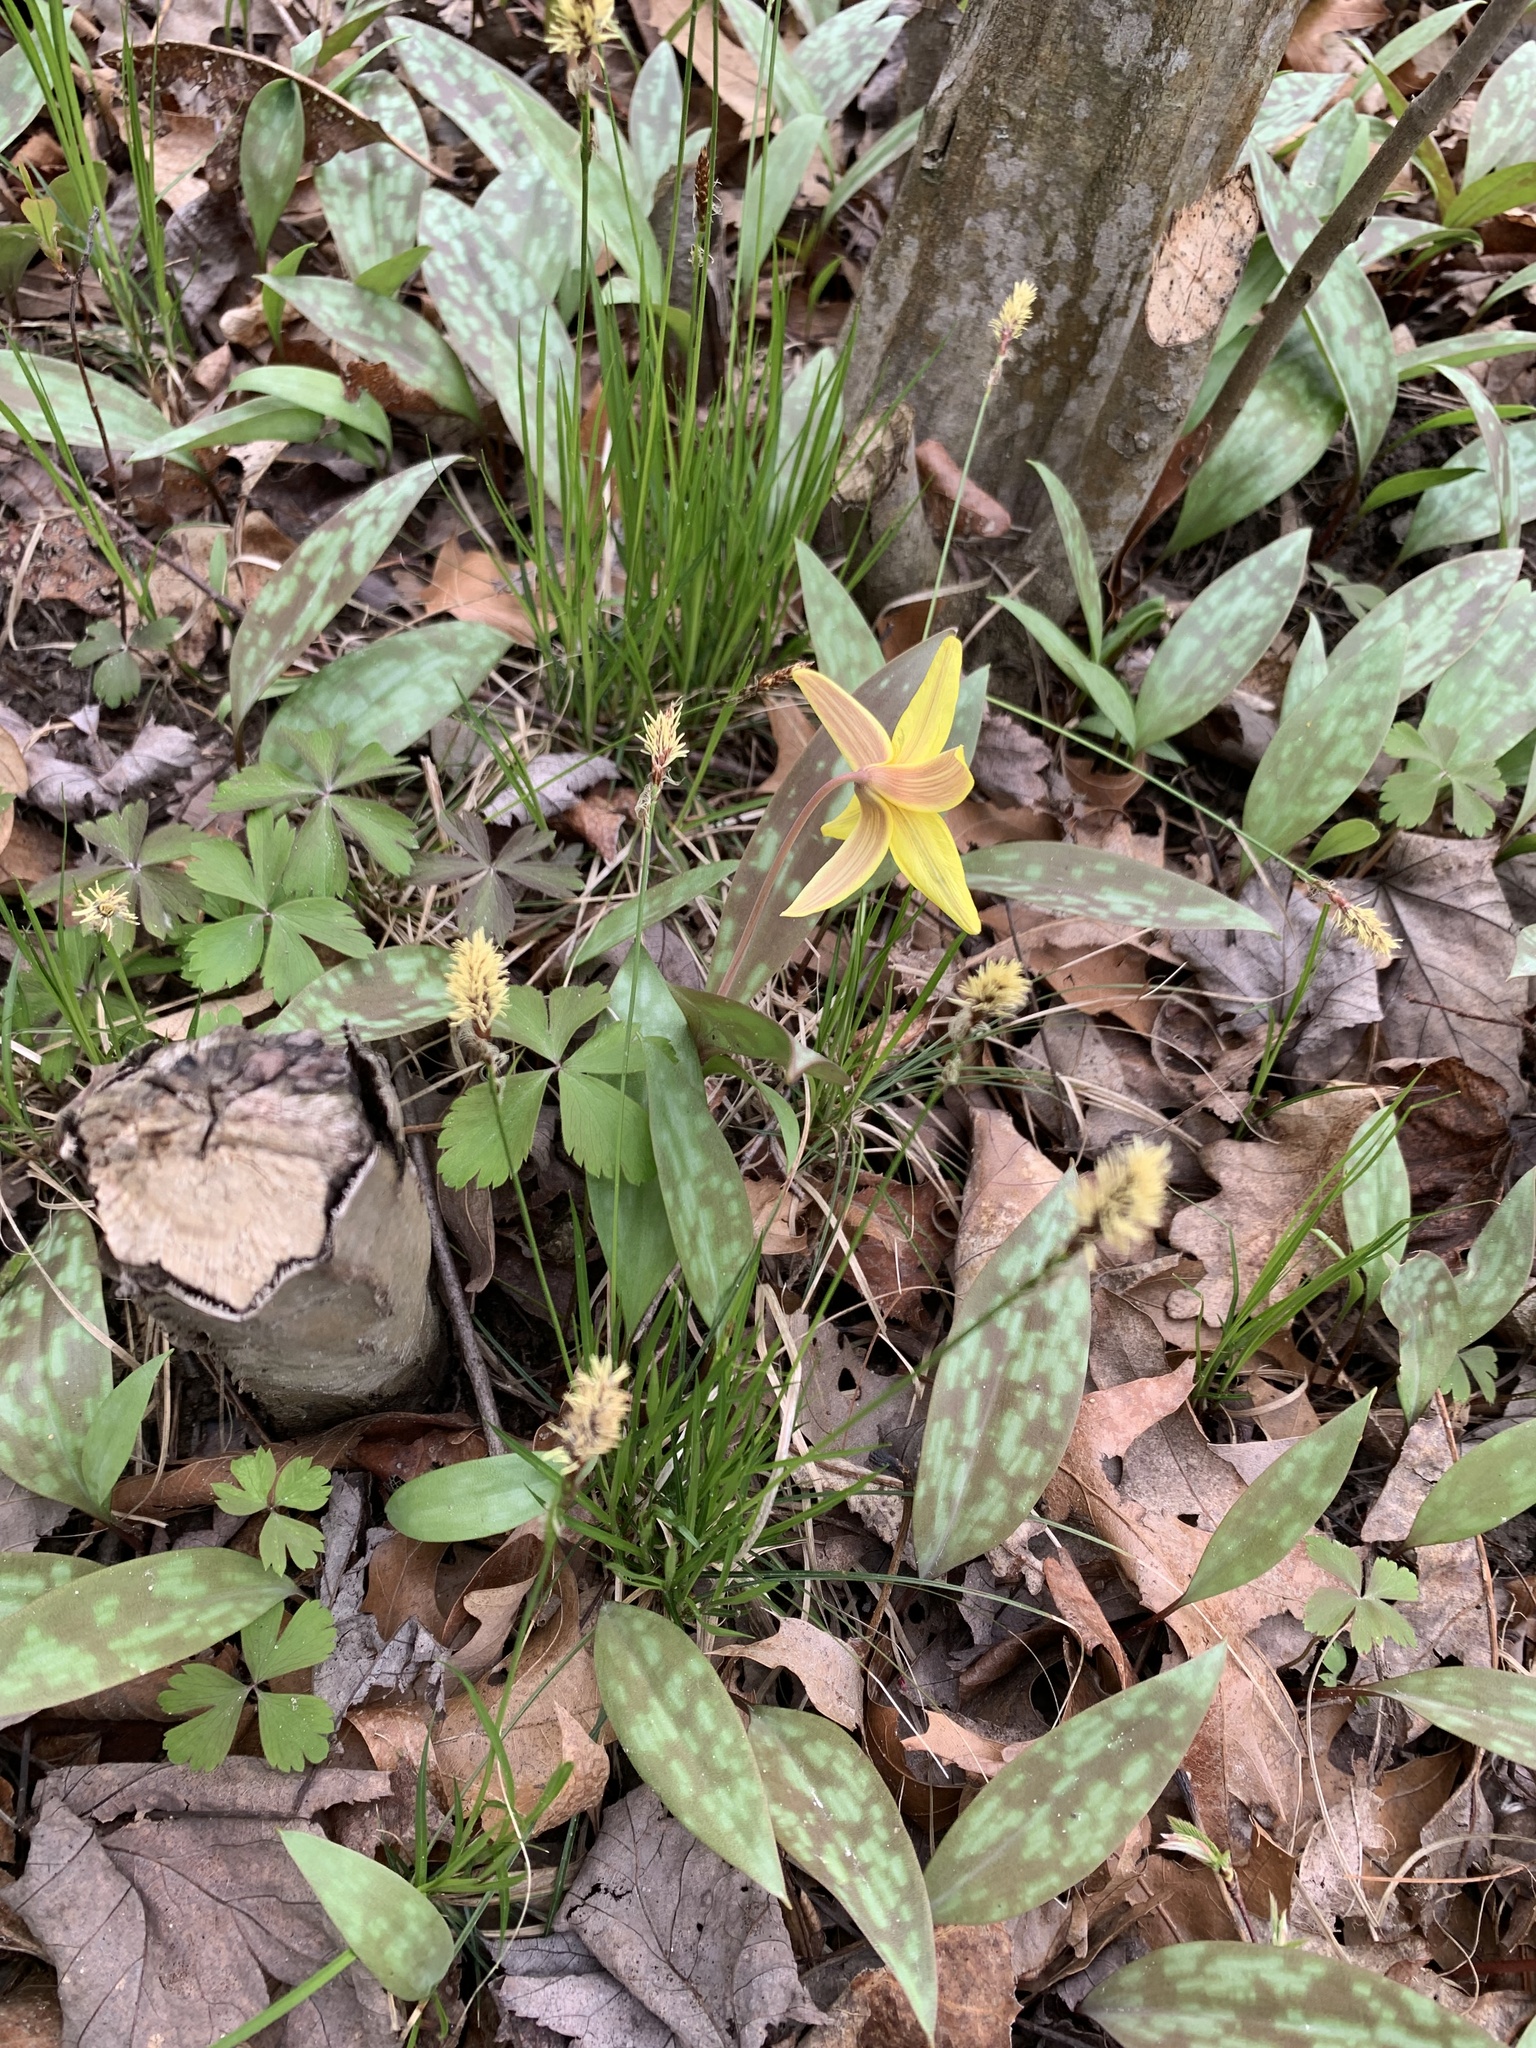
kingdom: Plantae
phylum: Tracheophyta
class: Liliopsida
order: Liliales
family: Liliaceae
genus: Erythronium
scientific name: Erythronium americanum
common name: Yellow adder's-tongue
